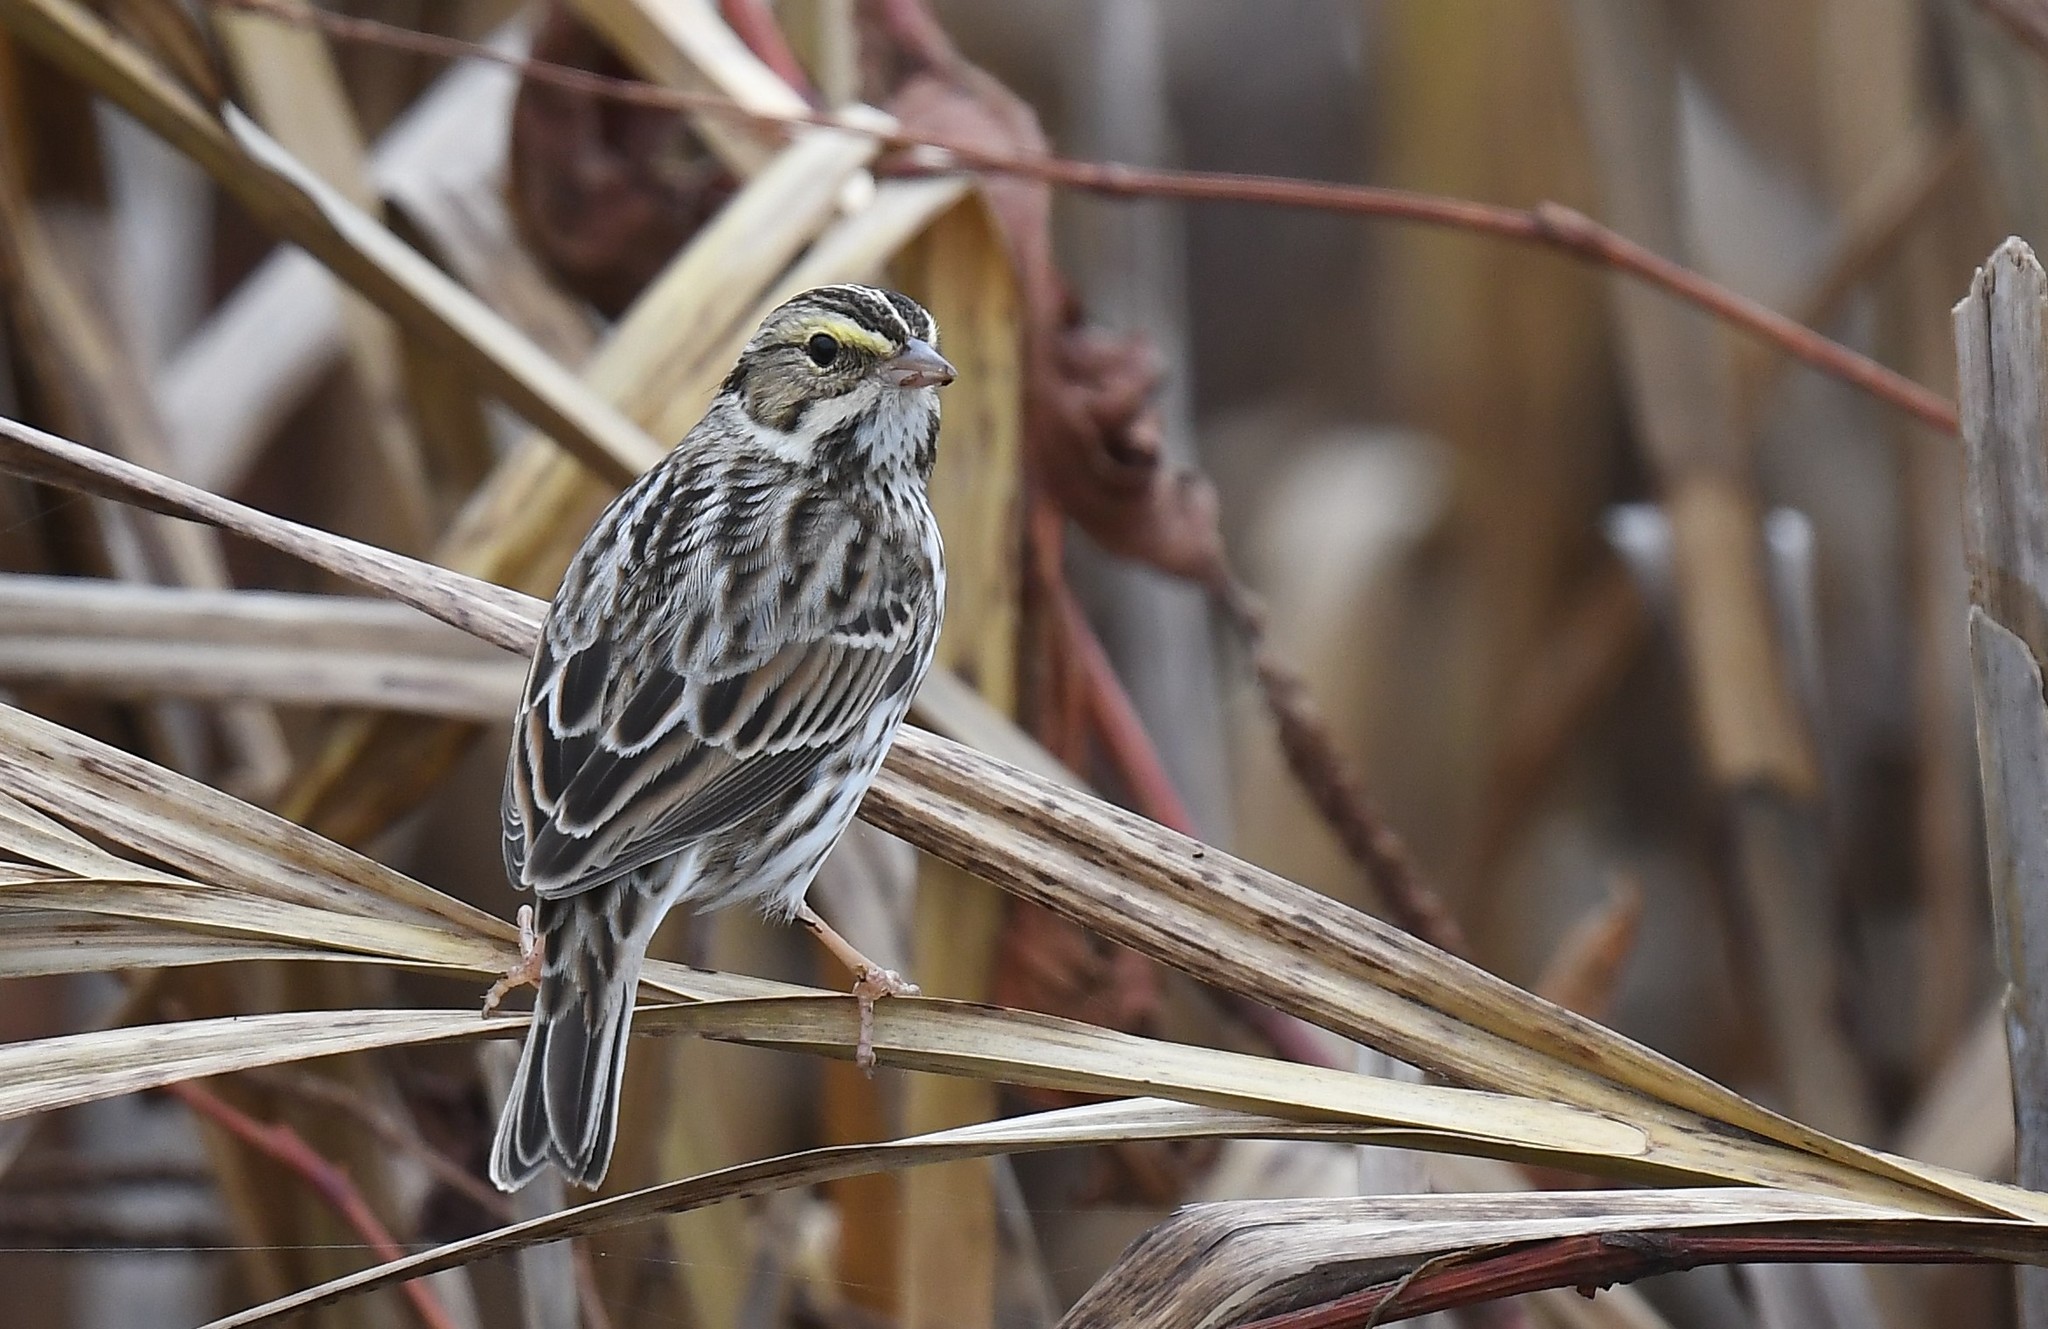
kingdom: Animalia
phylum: Chordata
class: Aves
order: Passeriformes
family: Passerellidae
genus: Passerculus
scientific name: Passerculus sandwichensis
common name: Savannah sparrow
